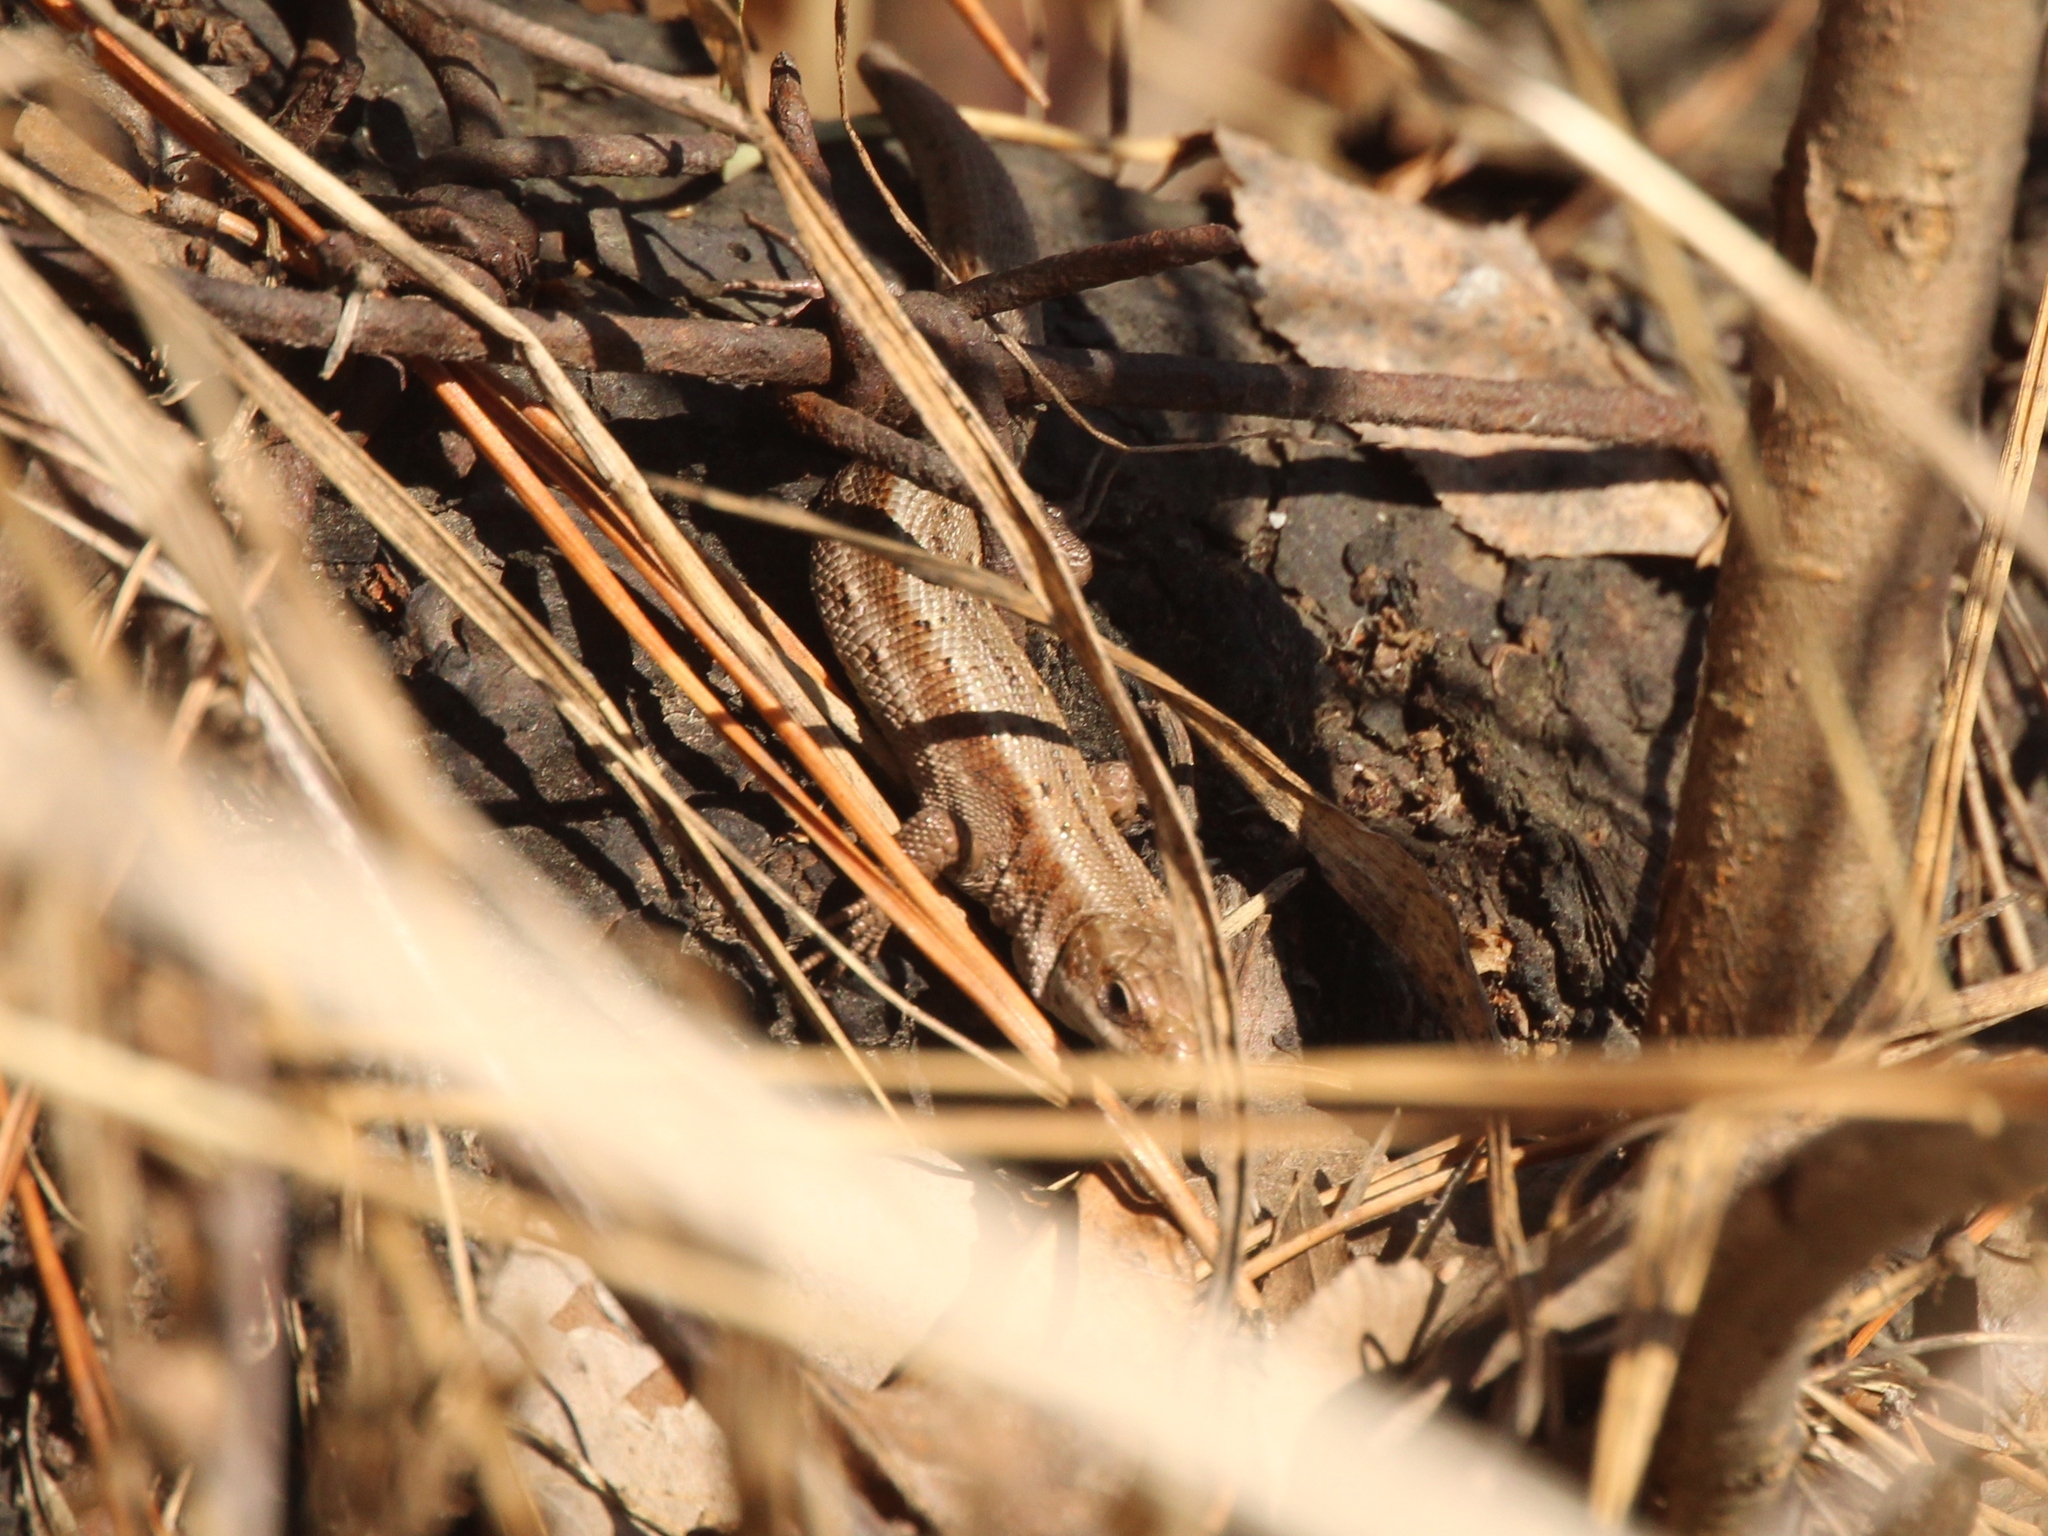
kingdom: Animalia
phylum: Chordata
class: Squamata
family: Lacertidae
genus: Zootoca
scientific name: Zootoca vivipara
